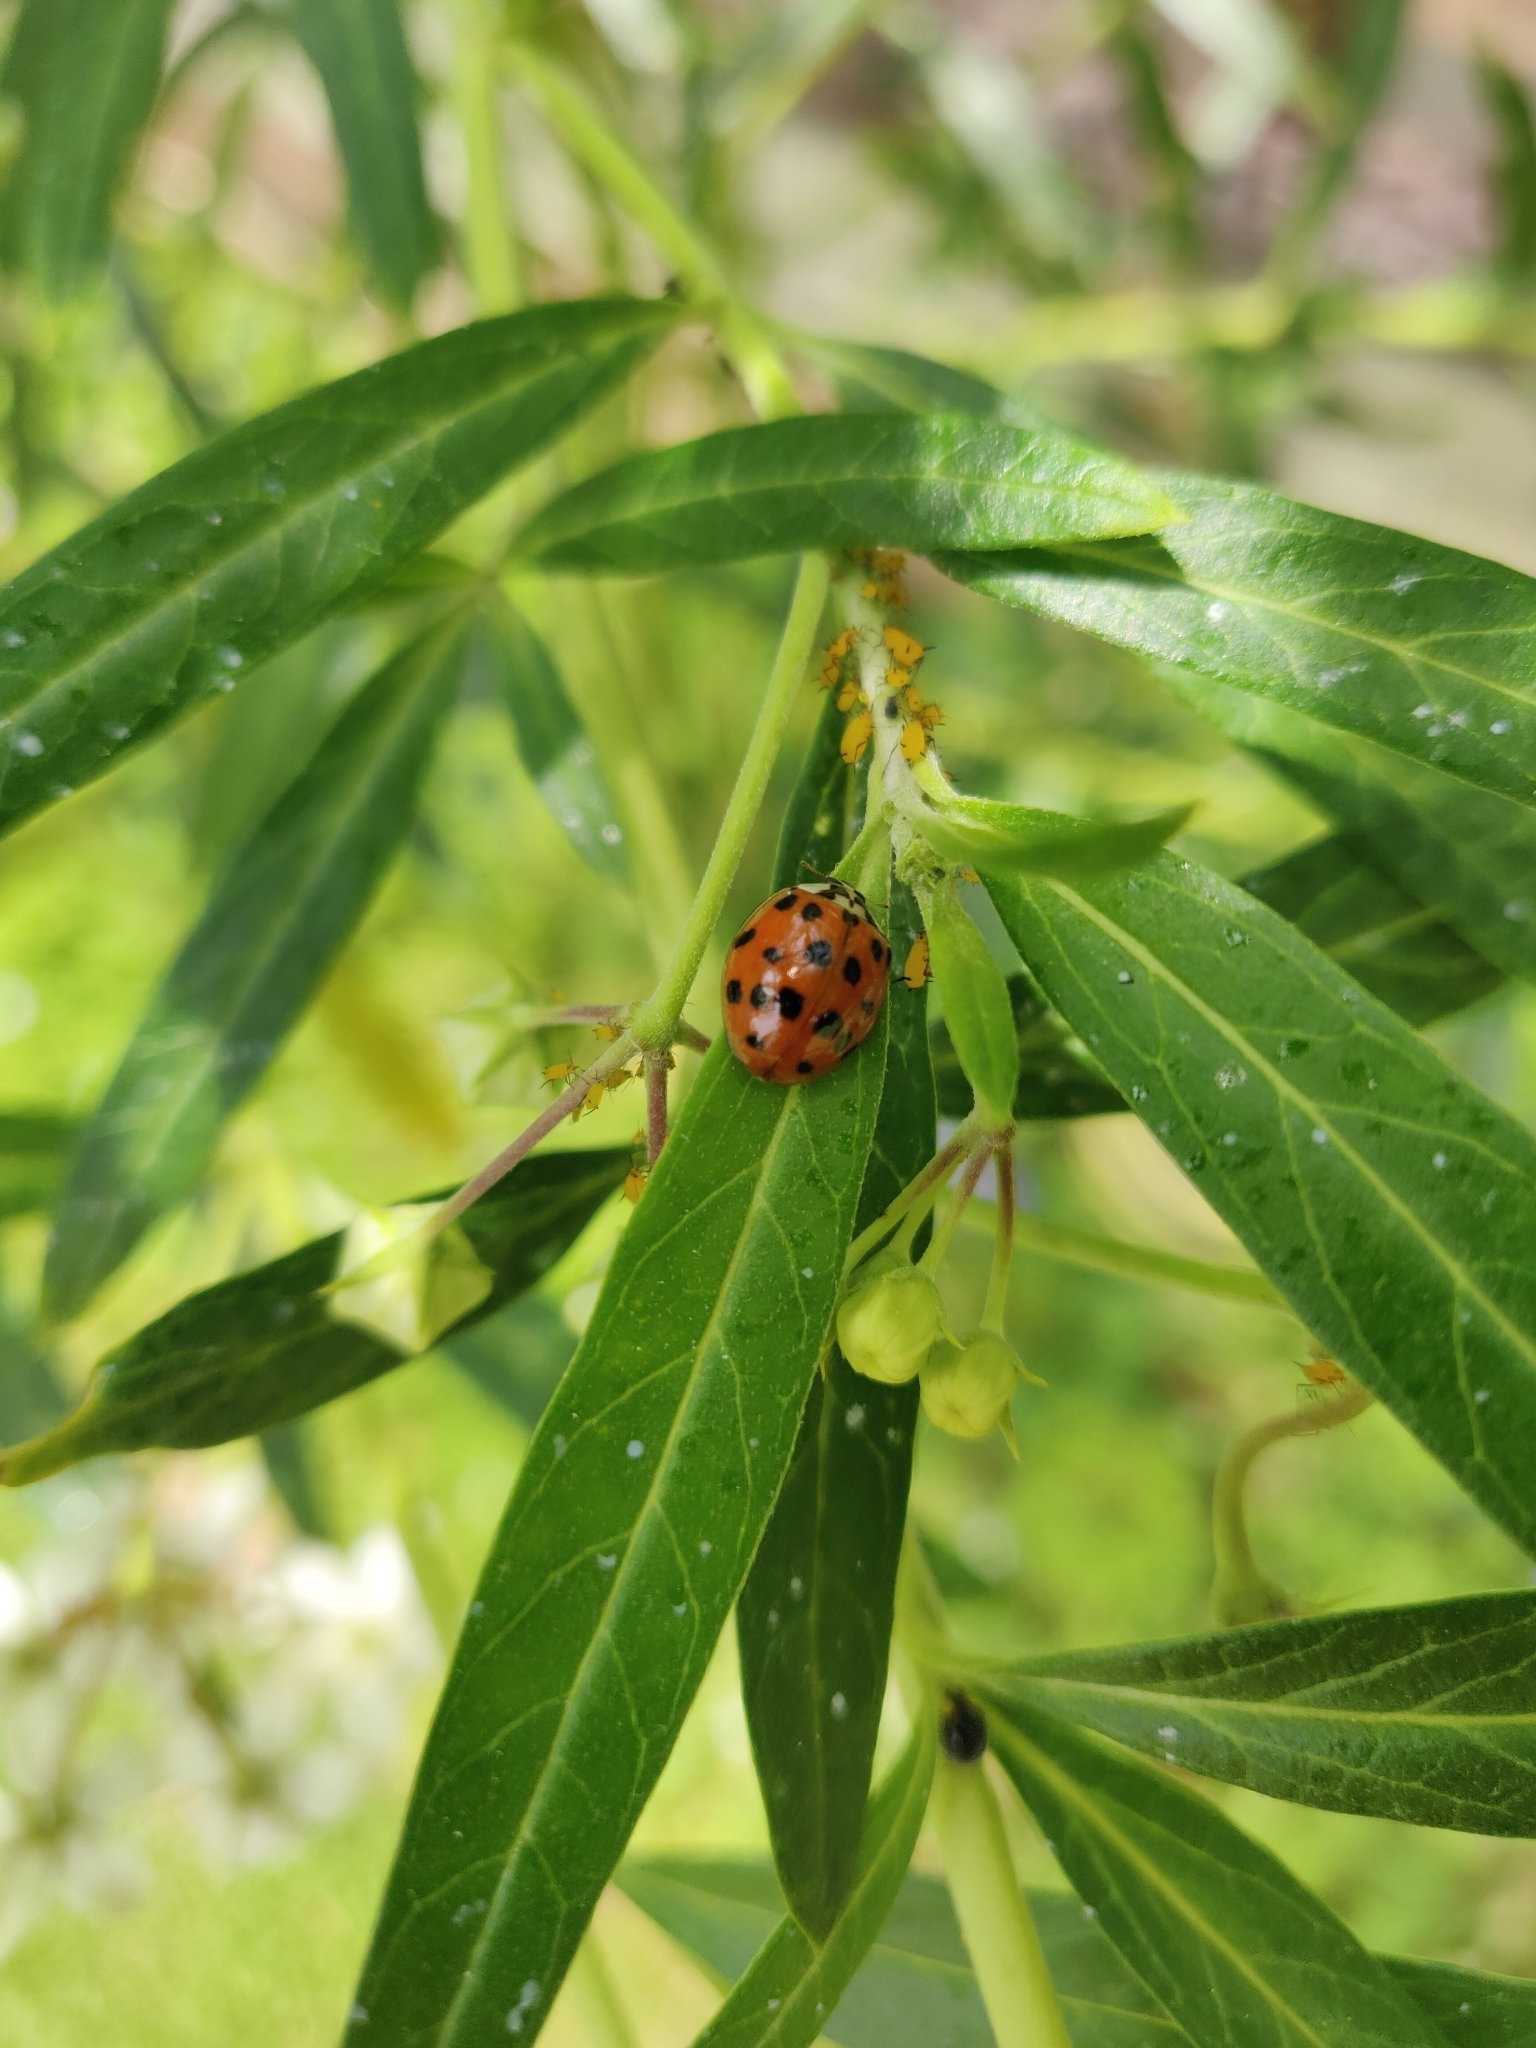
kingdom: Animalia
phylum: Arthropoda
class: Insecta
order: Coleoptera
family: Coccinellidae
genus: Harmonia
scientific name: Harmonia axyridis
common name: Harlequin ladybird
